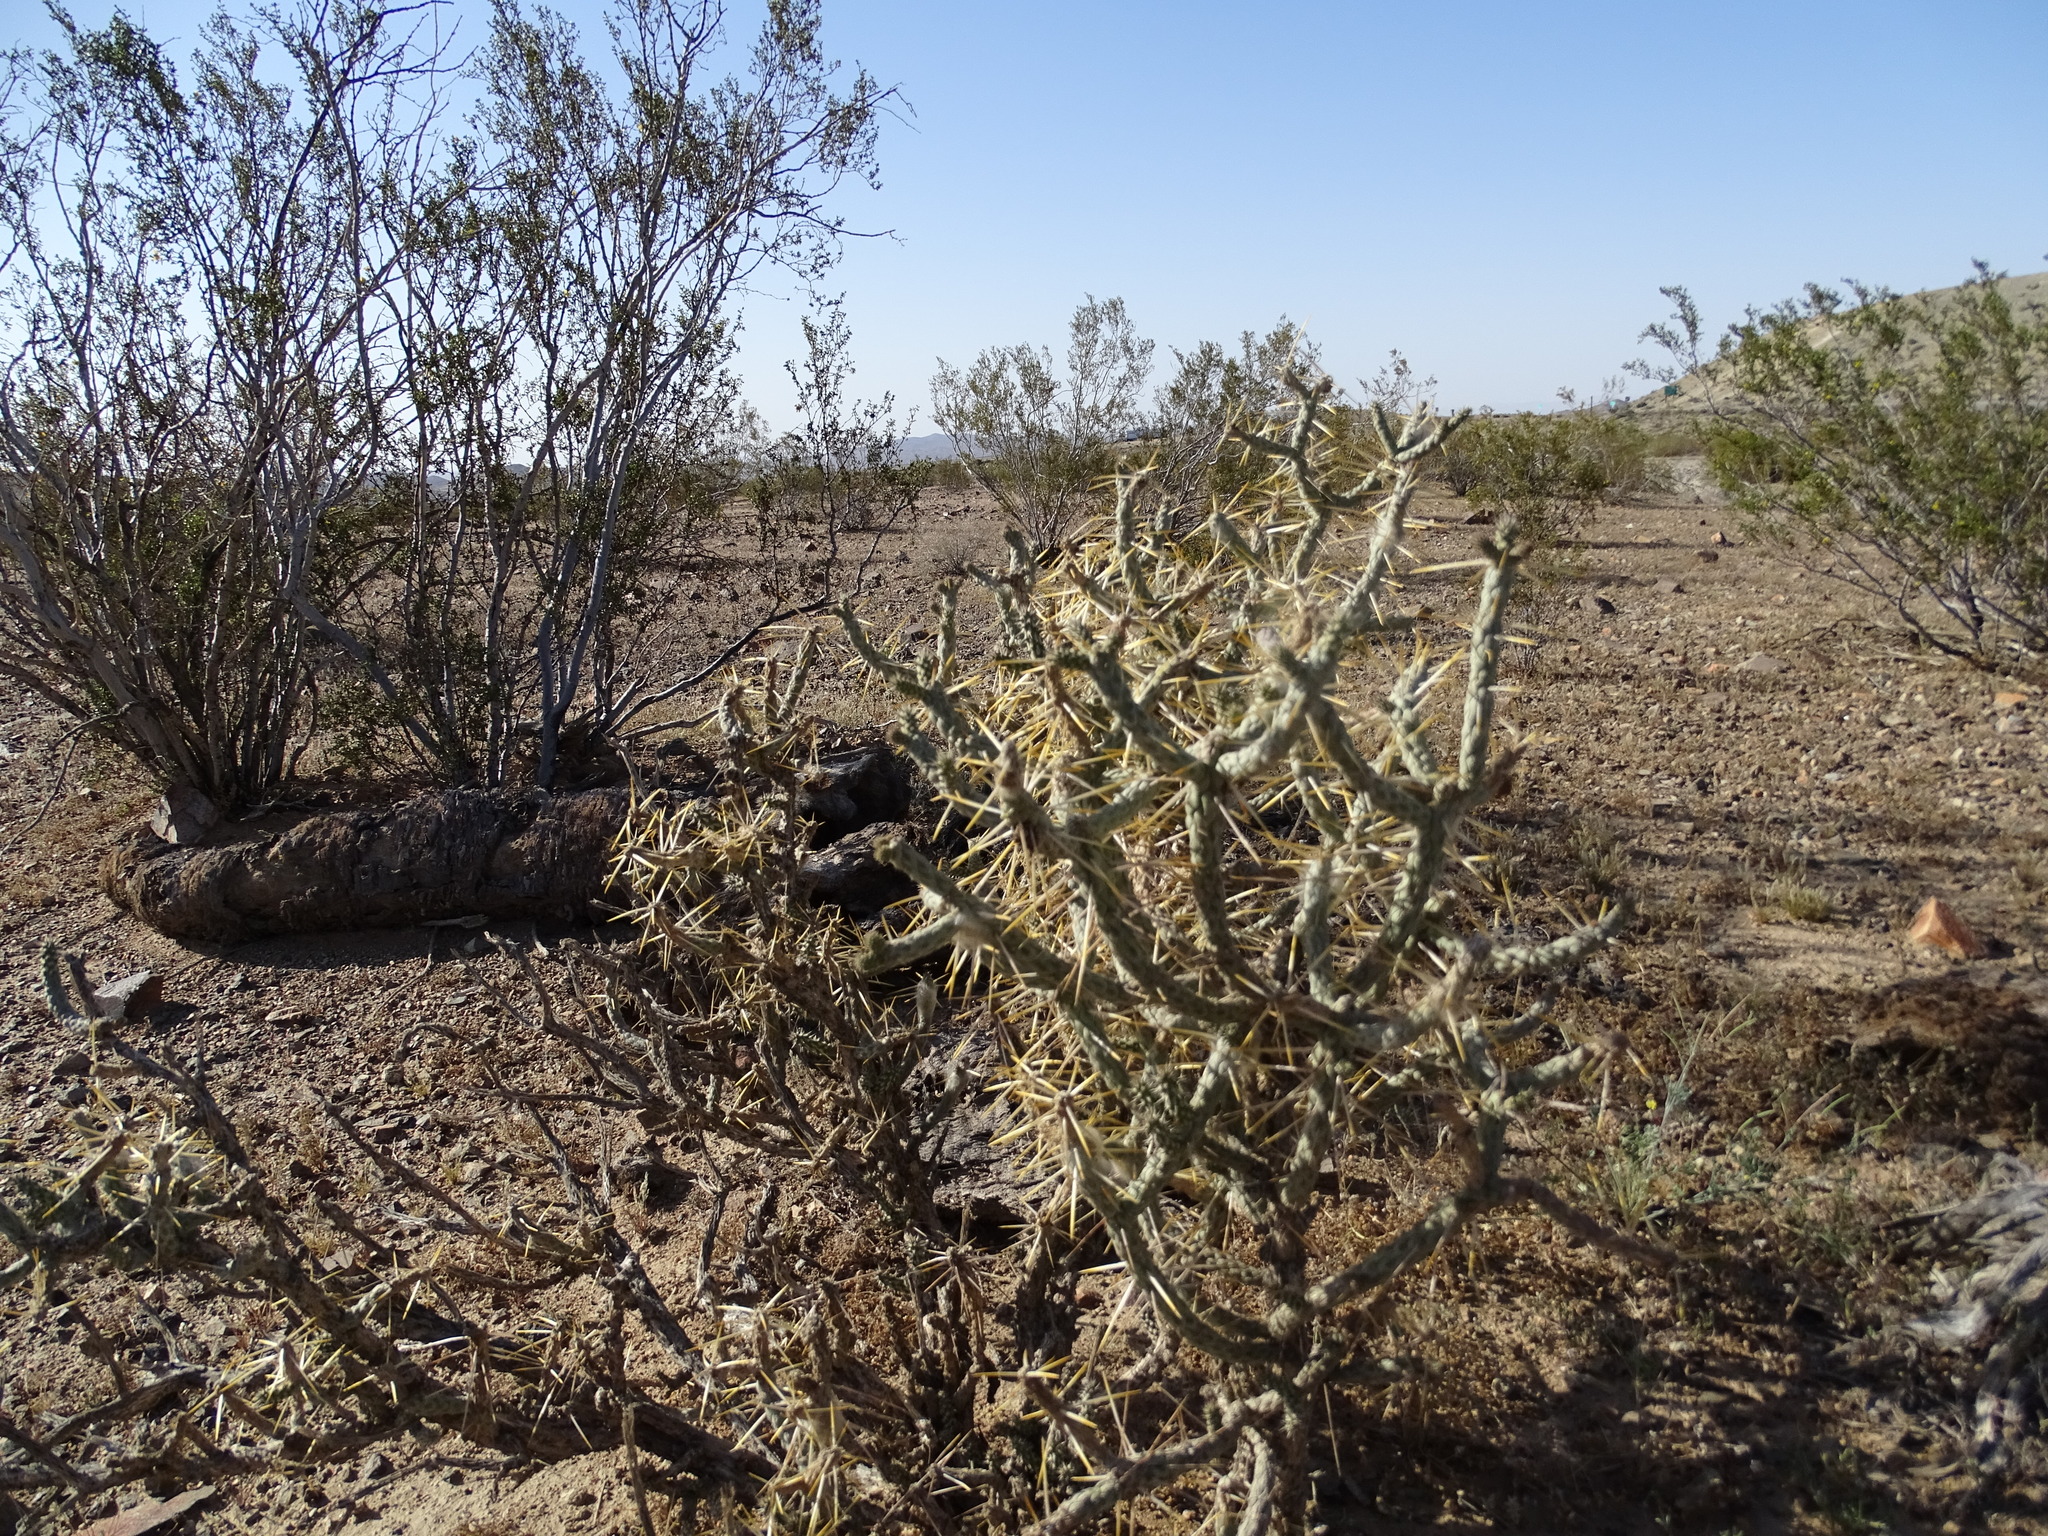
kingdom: Plantae
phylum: Tracheophyta
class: Magnoliopsida
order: Caryophyllales
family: Cactaceae
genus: Cylindropuntia
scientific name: Cylindropuntia ramosissima
